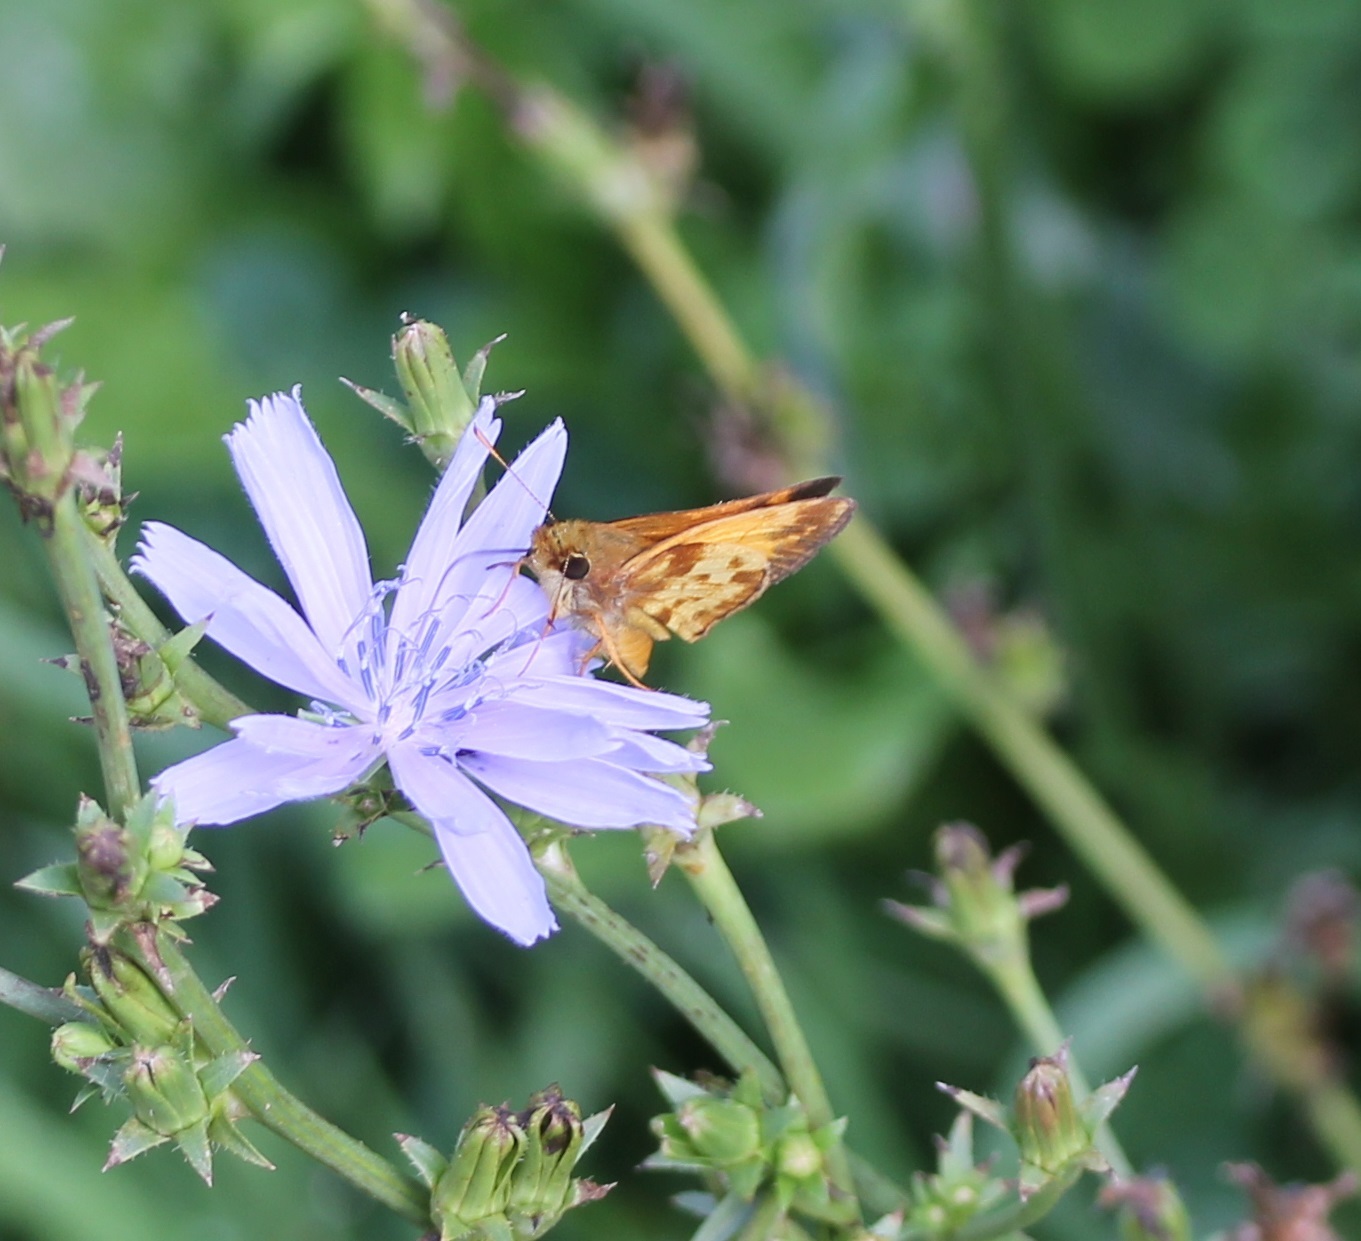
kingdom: Animalia
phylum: Arthropoda
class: Insecta
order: Lepidoptera
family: Hesperiidae
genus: Lon
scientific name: Lon zabulon
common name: Zabulon skipper
